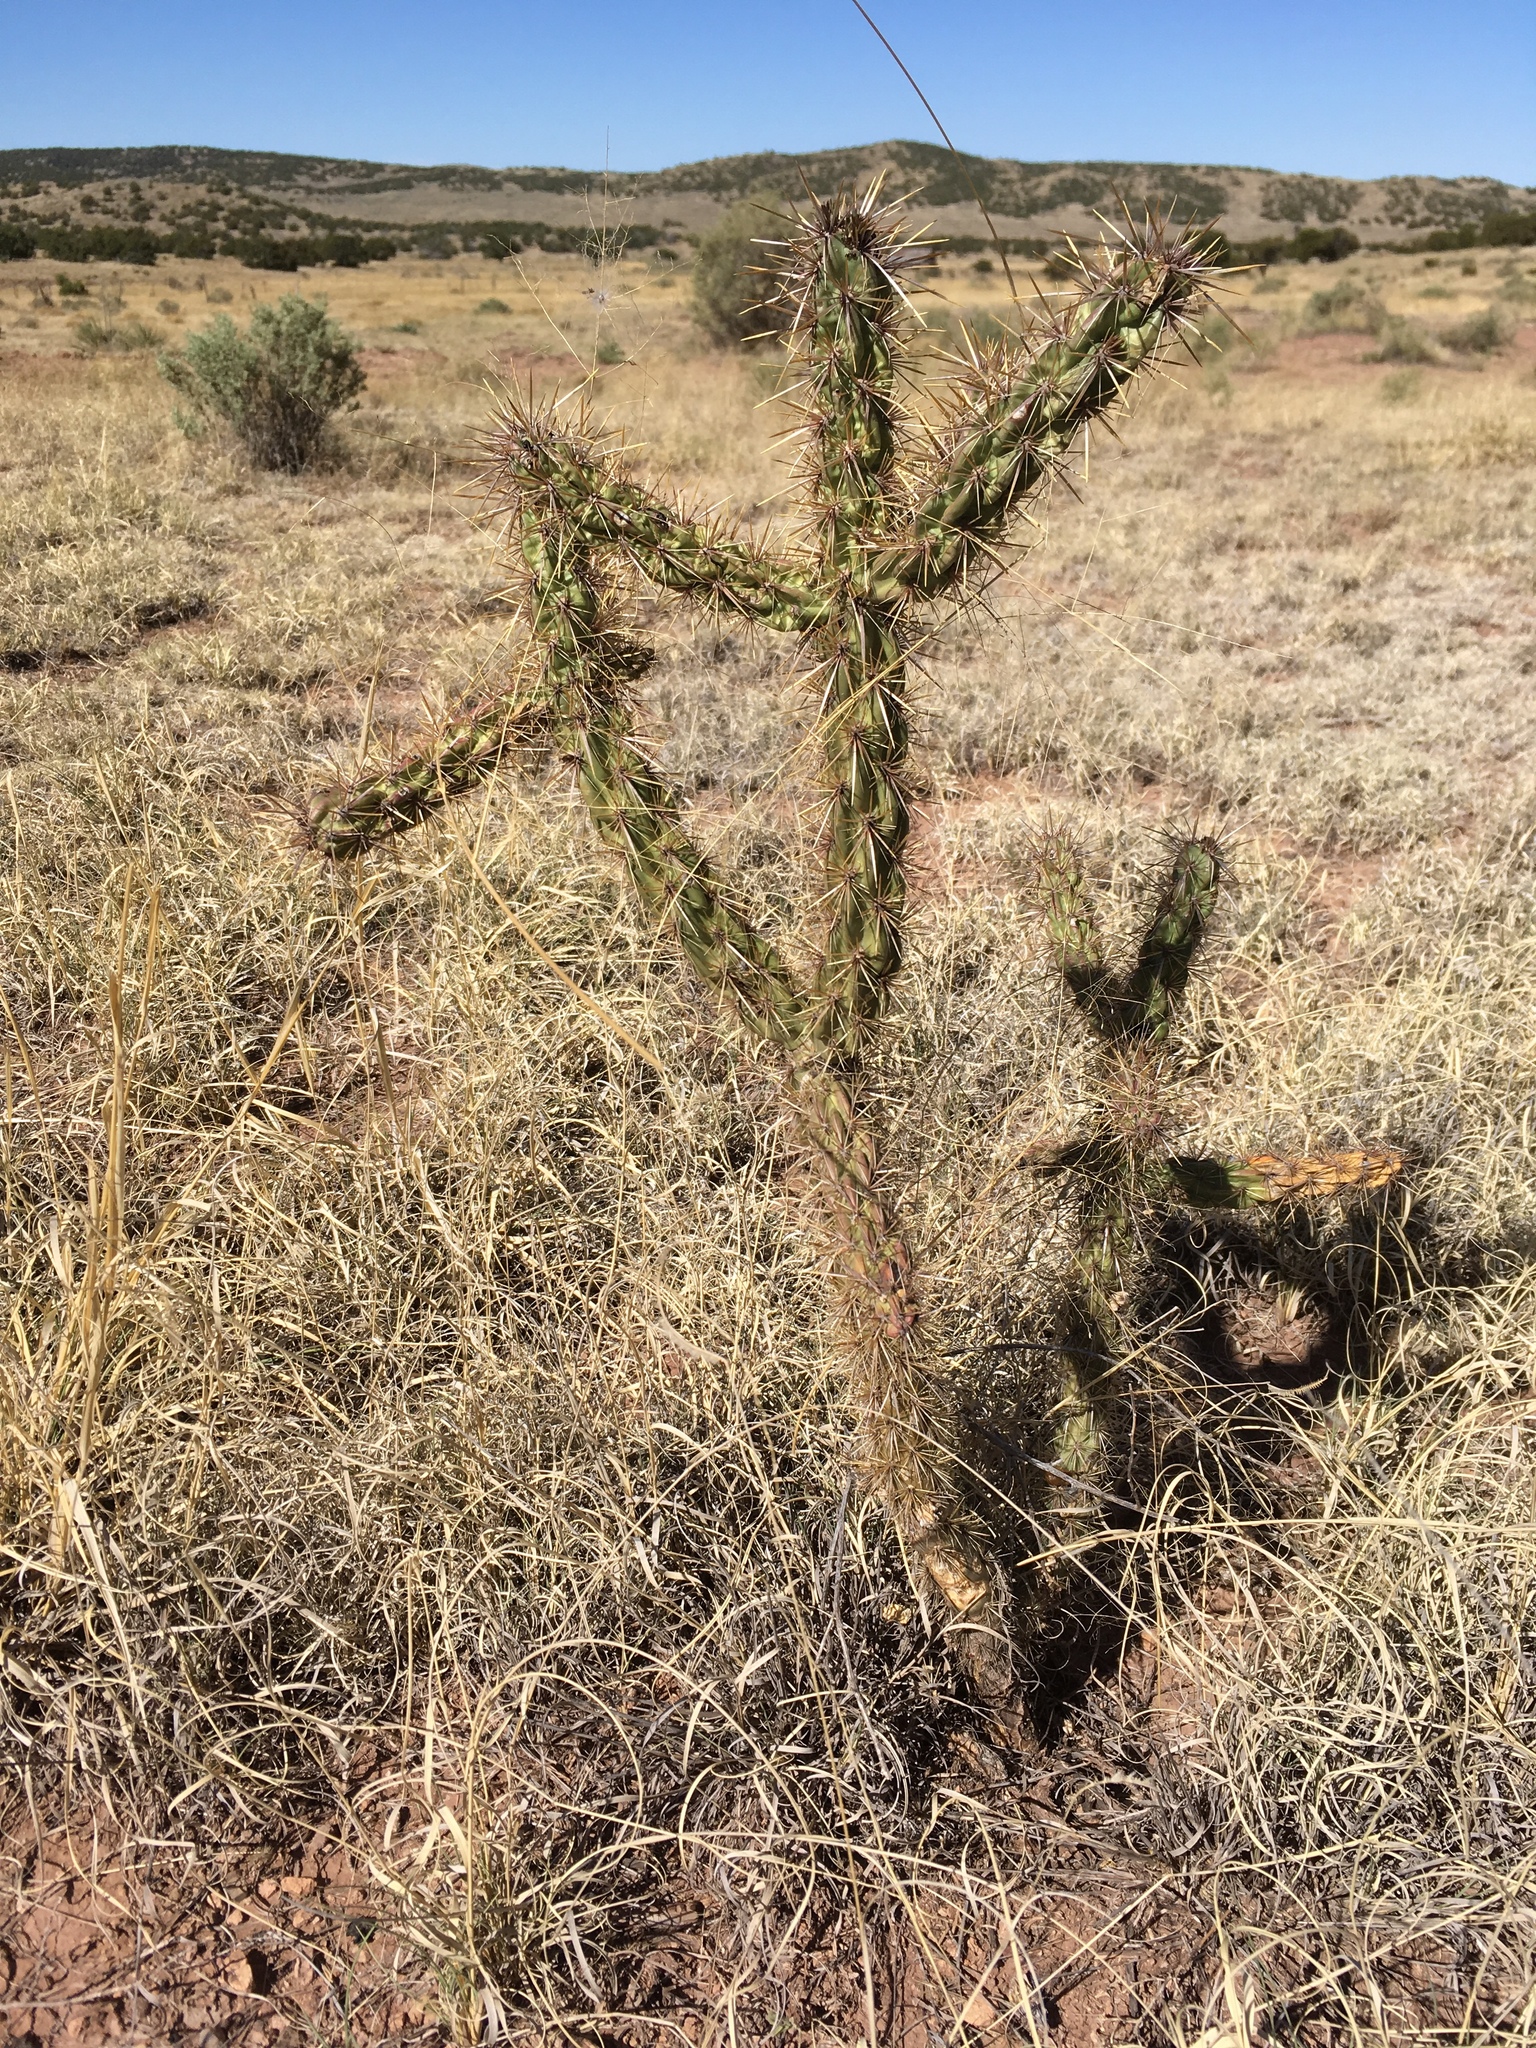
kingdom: Plantae
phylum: Tracheophyta
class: Magnoliopsida
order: Caryophyllales
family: Cactaceae
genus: Cylindropuntia
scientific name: Cylindropuntia imbricata
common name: Candelabrum cactus
